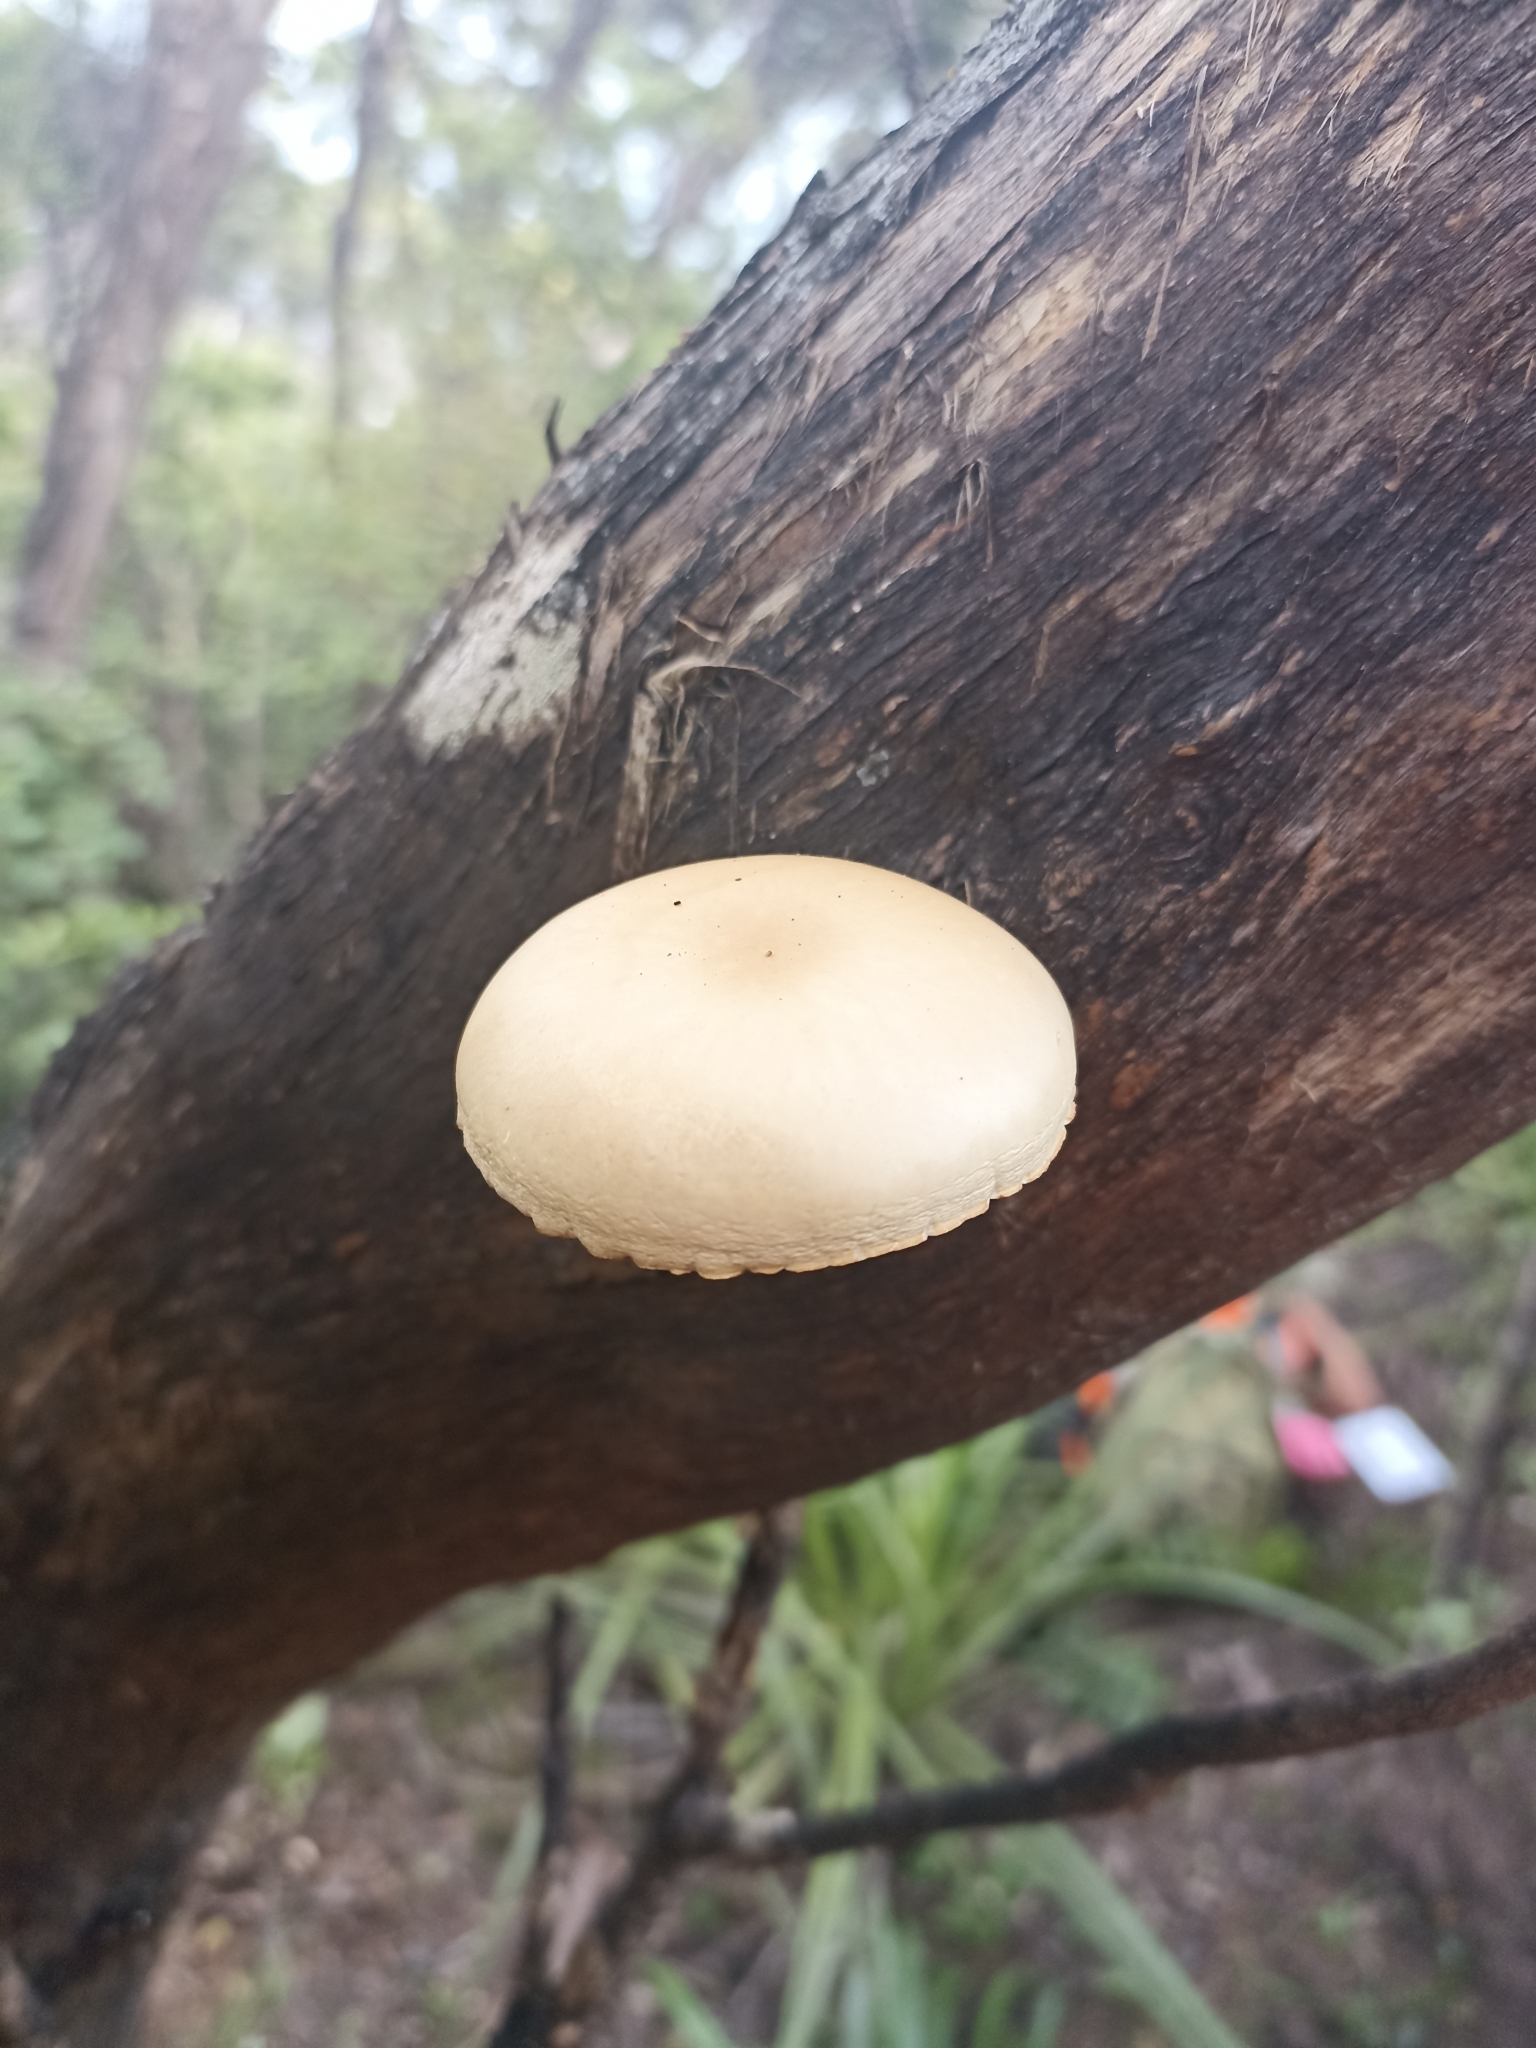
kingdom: Fungi
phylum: Basidiomycota
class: Agaricomycetes
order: Agaricales
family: Tubariaceae
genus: Cyclocybe
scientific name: Cyclocybe parasitica
